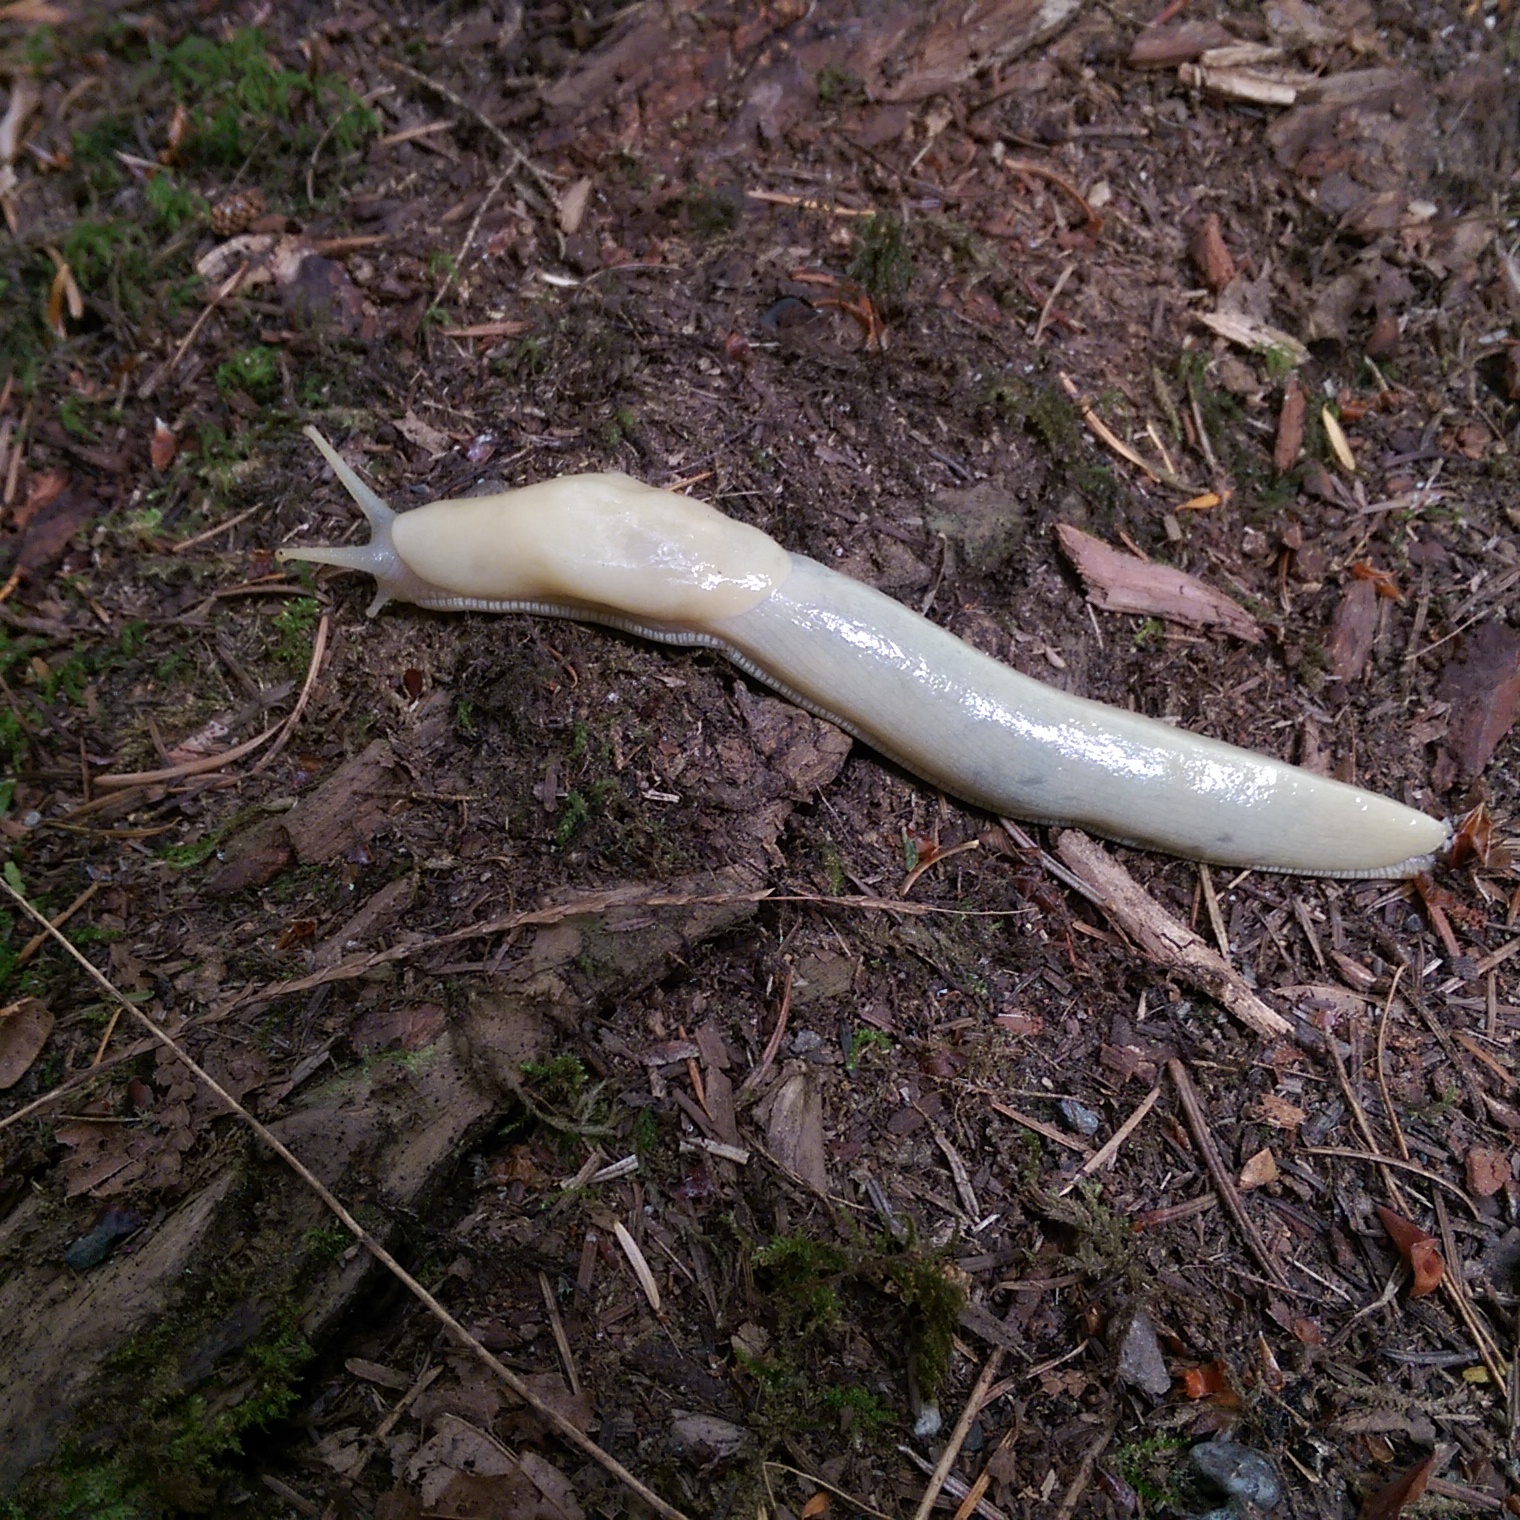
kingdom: Animalia
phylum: Mollusca
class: Gastropoda
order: Stylommatophora
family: Ariolimacidae
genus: Ariolimax
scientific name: Ariolimax columbianus
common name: Pacific banana slug
